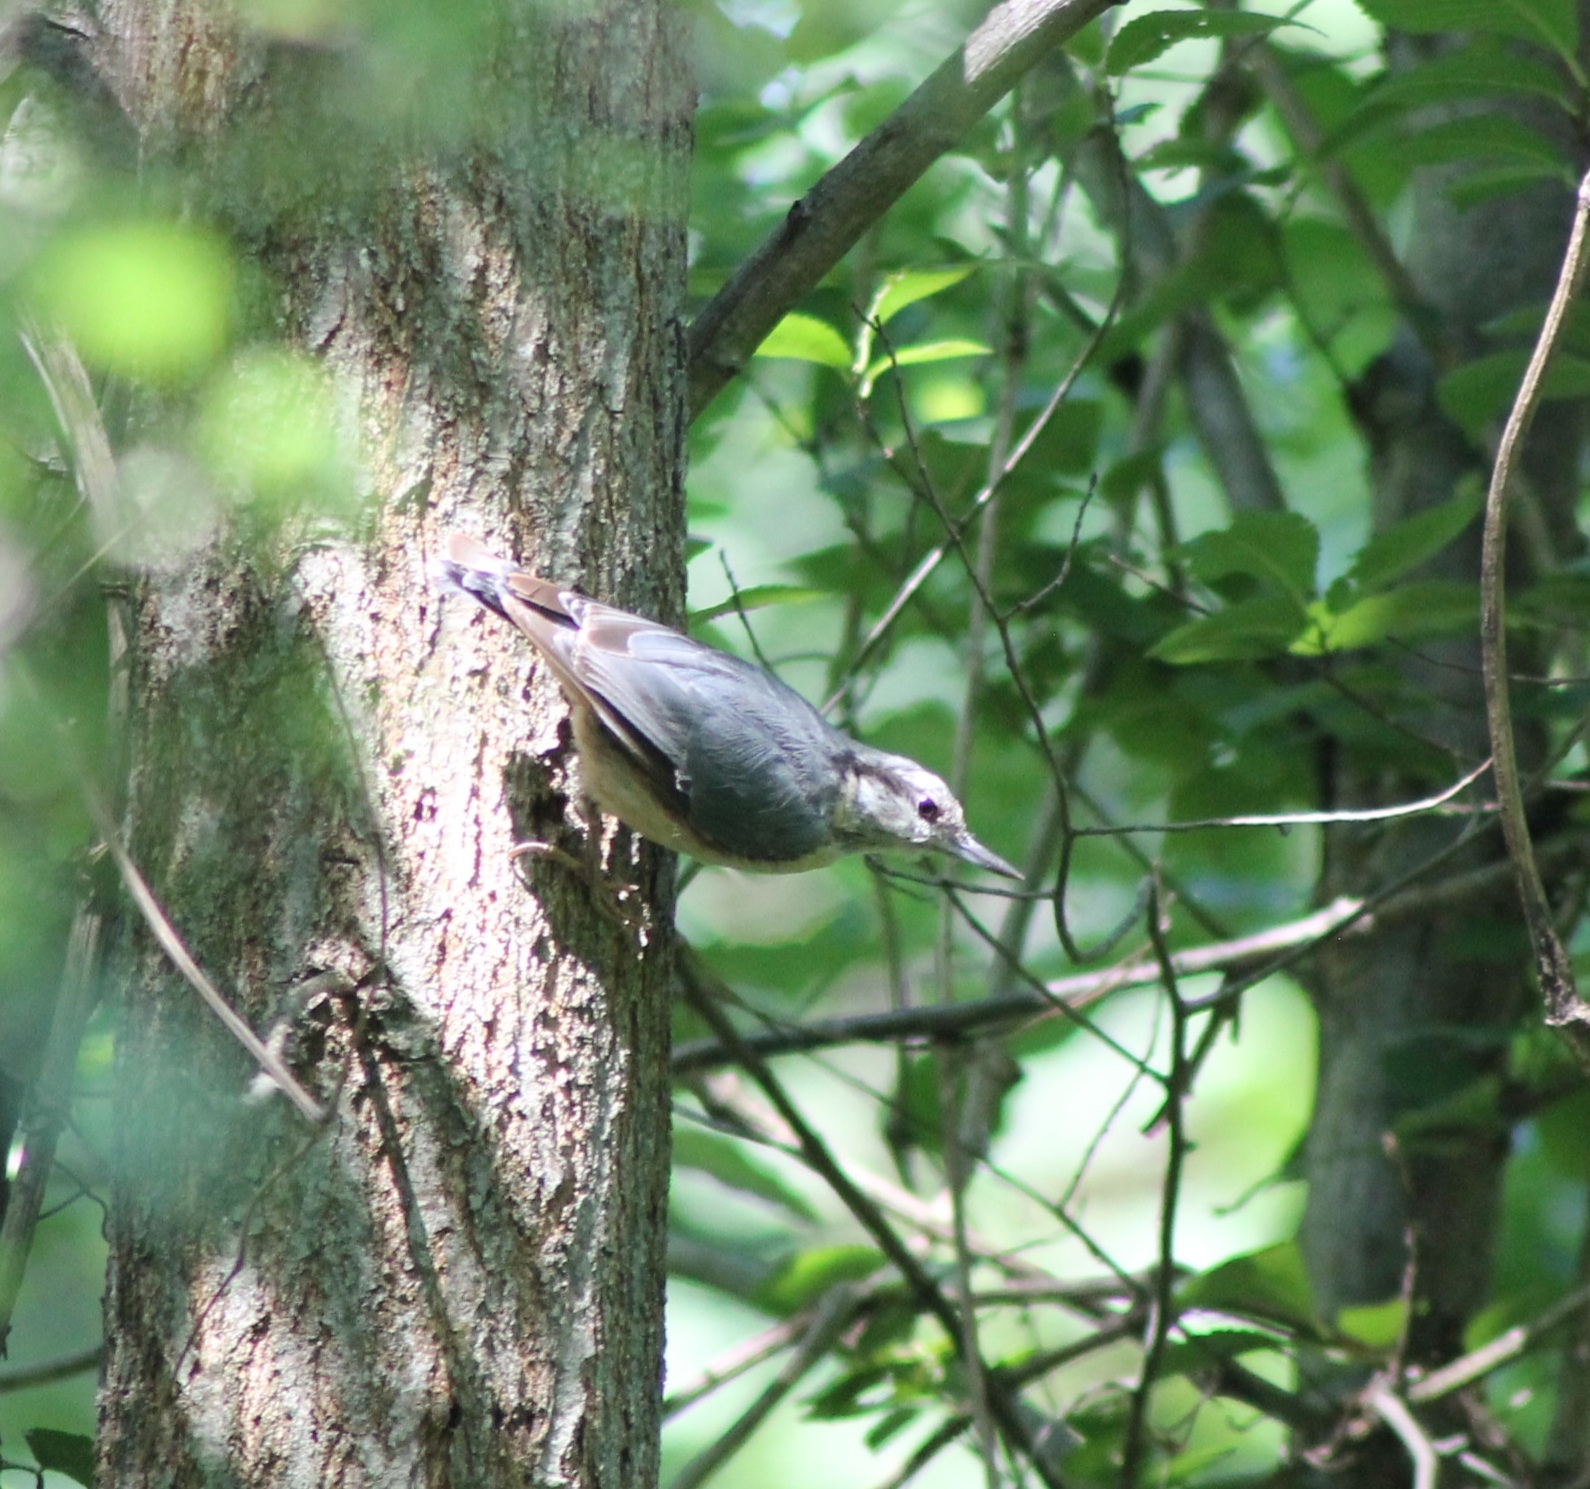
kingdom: Animalia
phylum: Chordata
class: Aves
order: Passeriformes
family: Sittidae
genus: Sitta
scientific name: Sitta europaea
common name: Eurasian nuthatch
